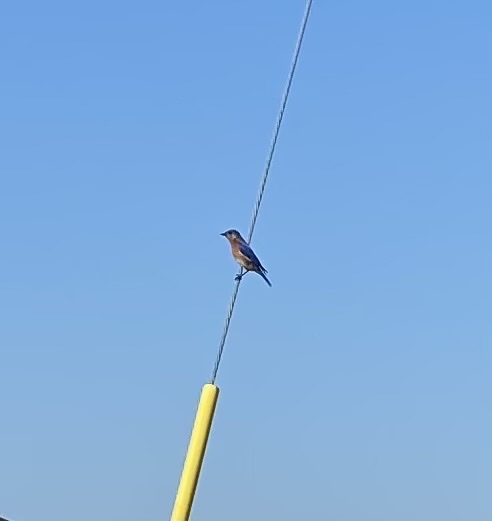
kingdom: Animalia
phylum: Chordata
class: Aves
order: Passeriformes
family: Turdidae
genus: Sialia
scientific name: Sialia sialis
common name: Eastern bluebird
